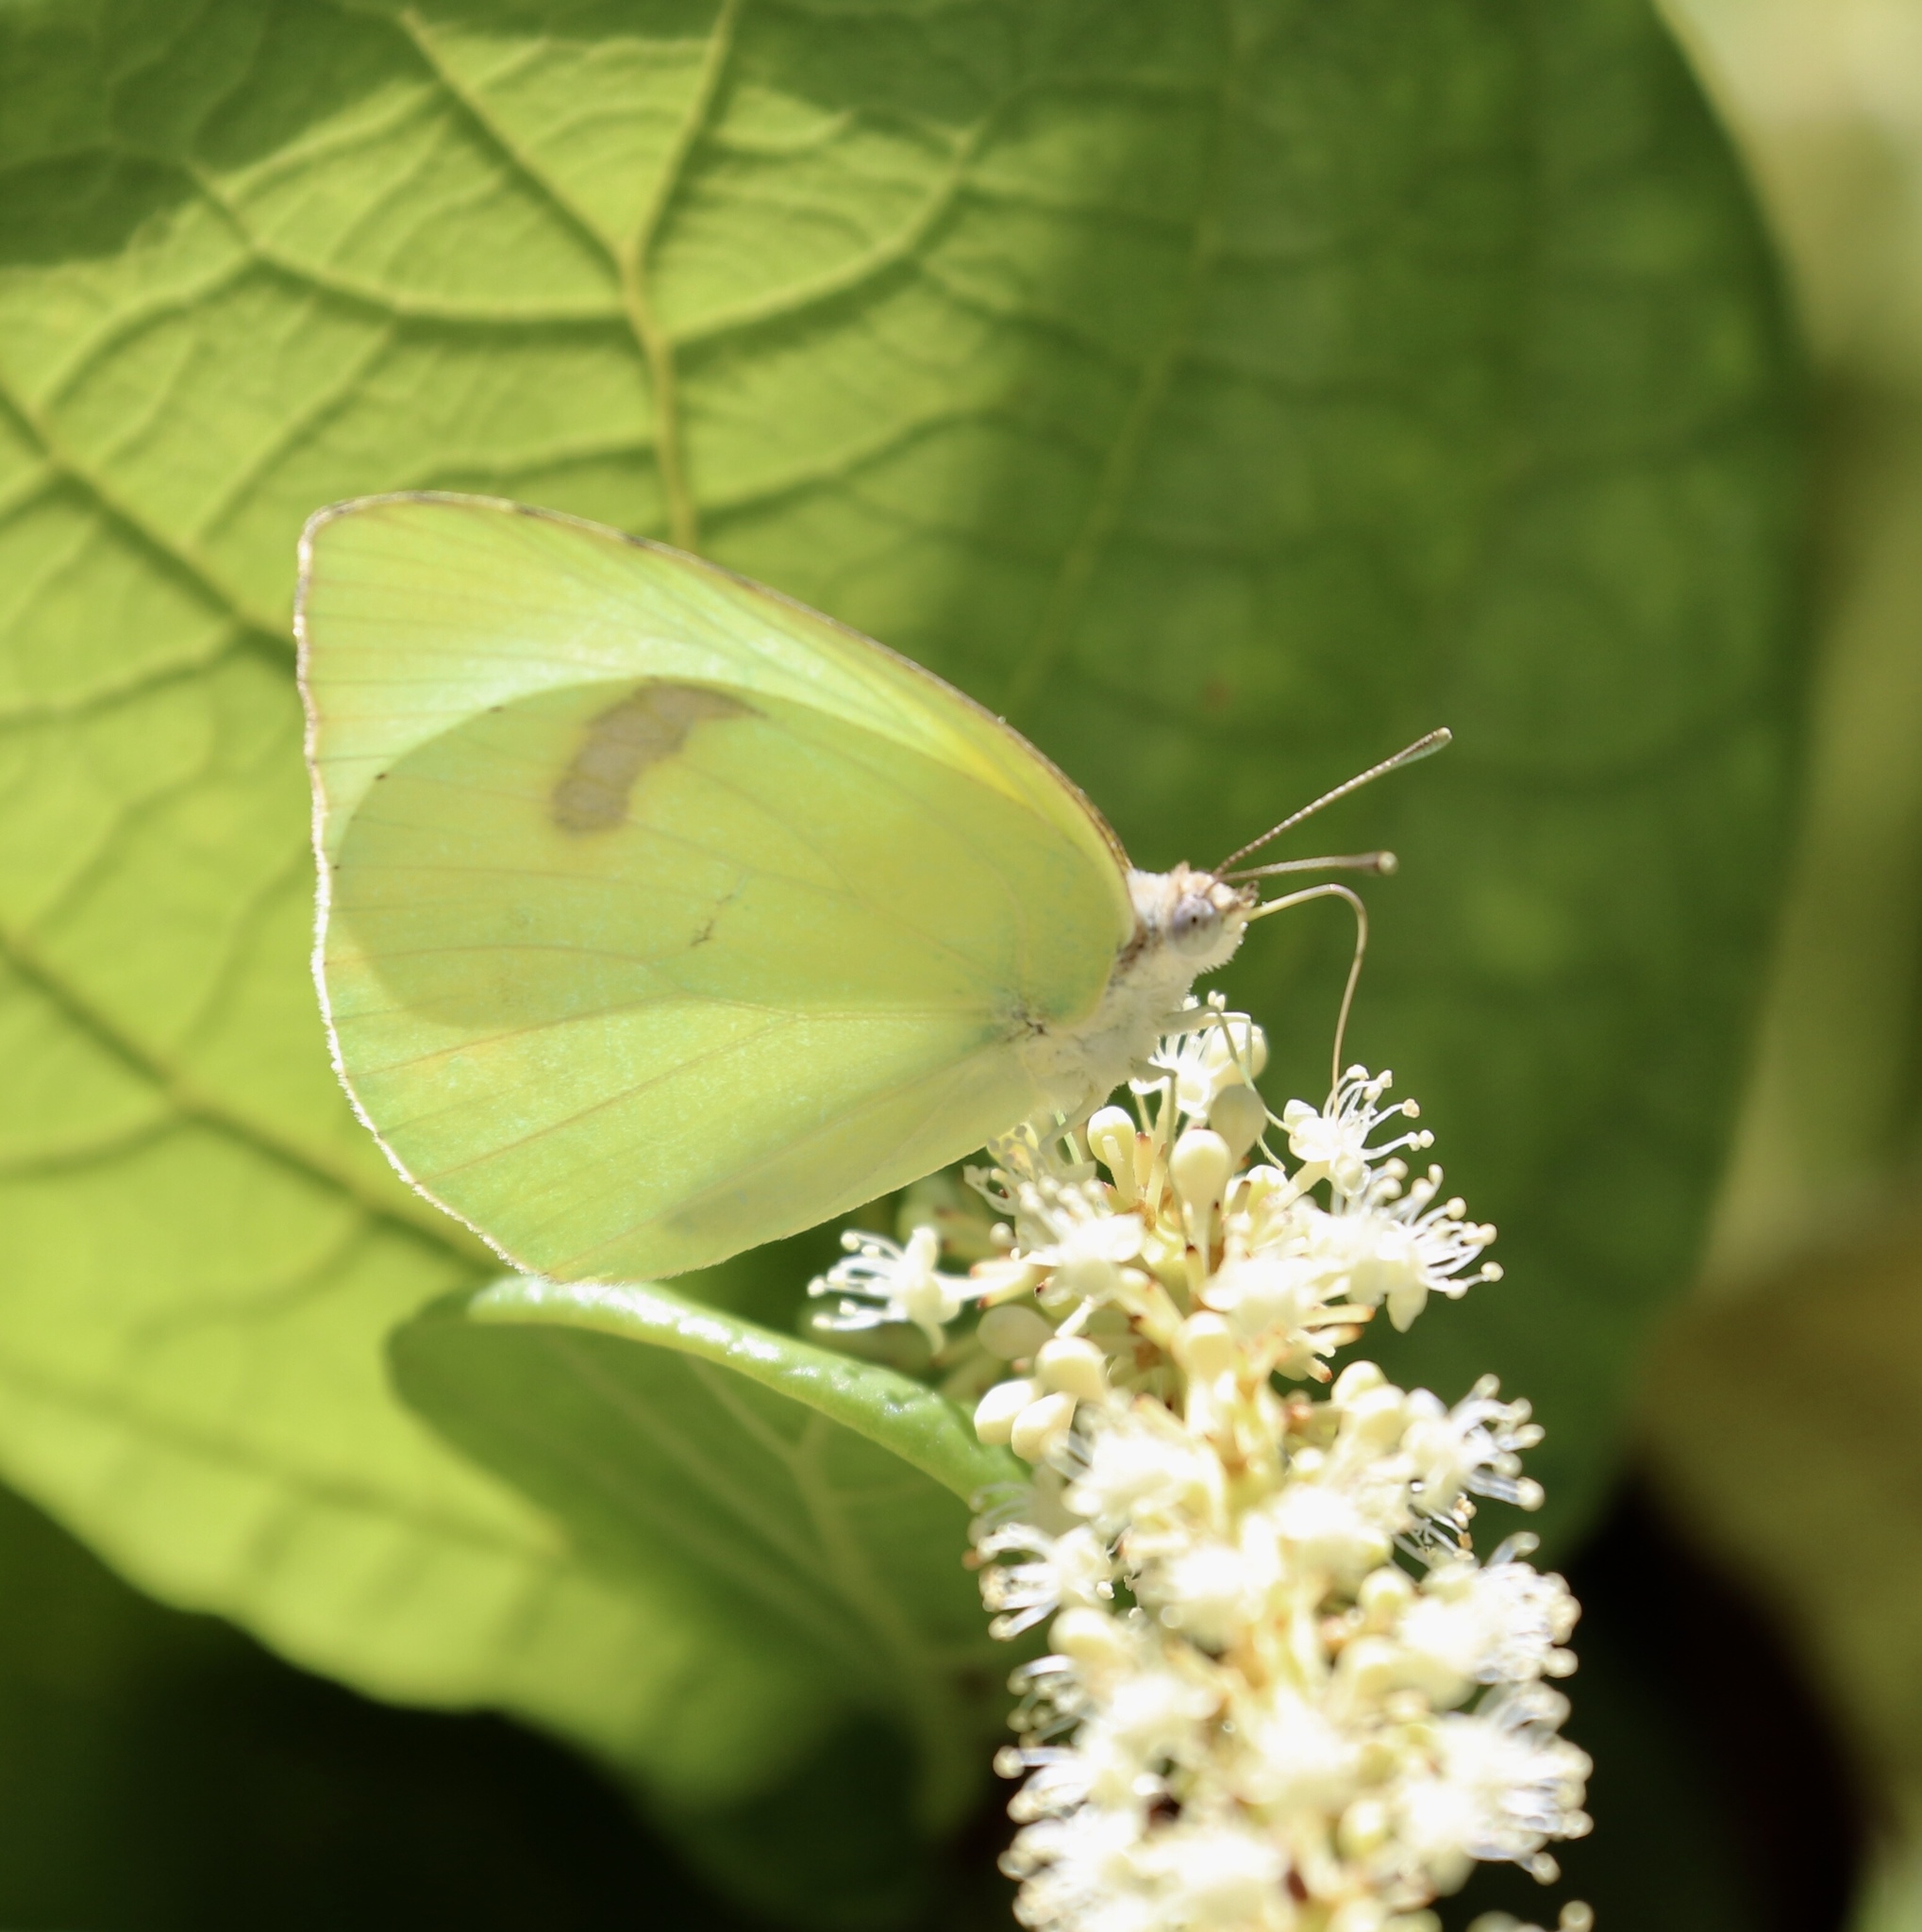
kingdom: Animalia
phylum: Arthropoda
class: Insecta
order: Lepidoptera
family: Pieridae
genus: Kricogonia
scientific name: Kricogonia lyside
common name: Guayacan sulphur,
